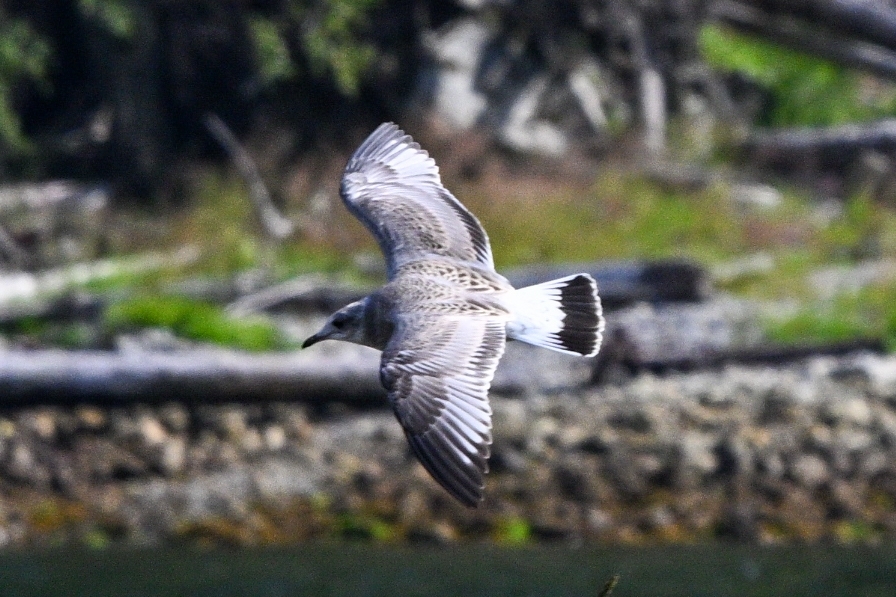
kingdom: Animalia
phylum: Chordata
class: Aves
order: Charadriiformes
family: Laridae
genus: Larus
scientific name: Larus canus
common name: Mew gull
